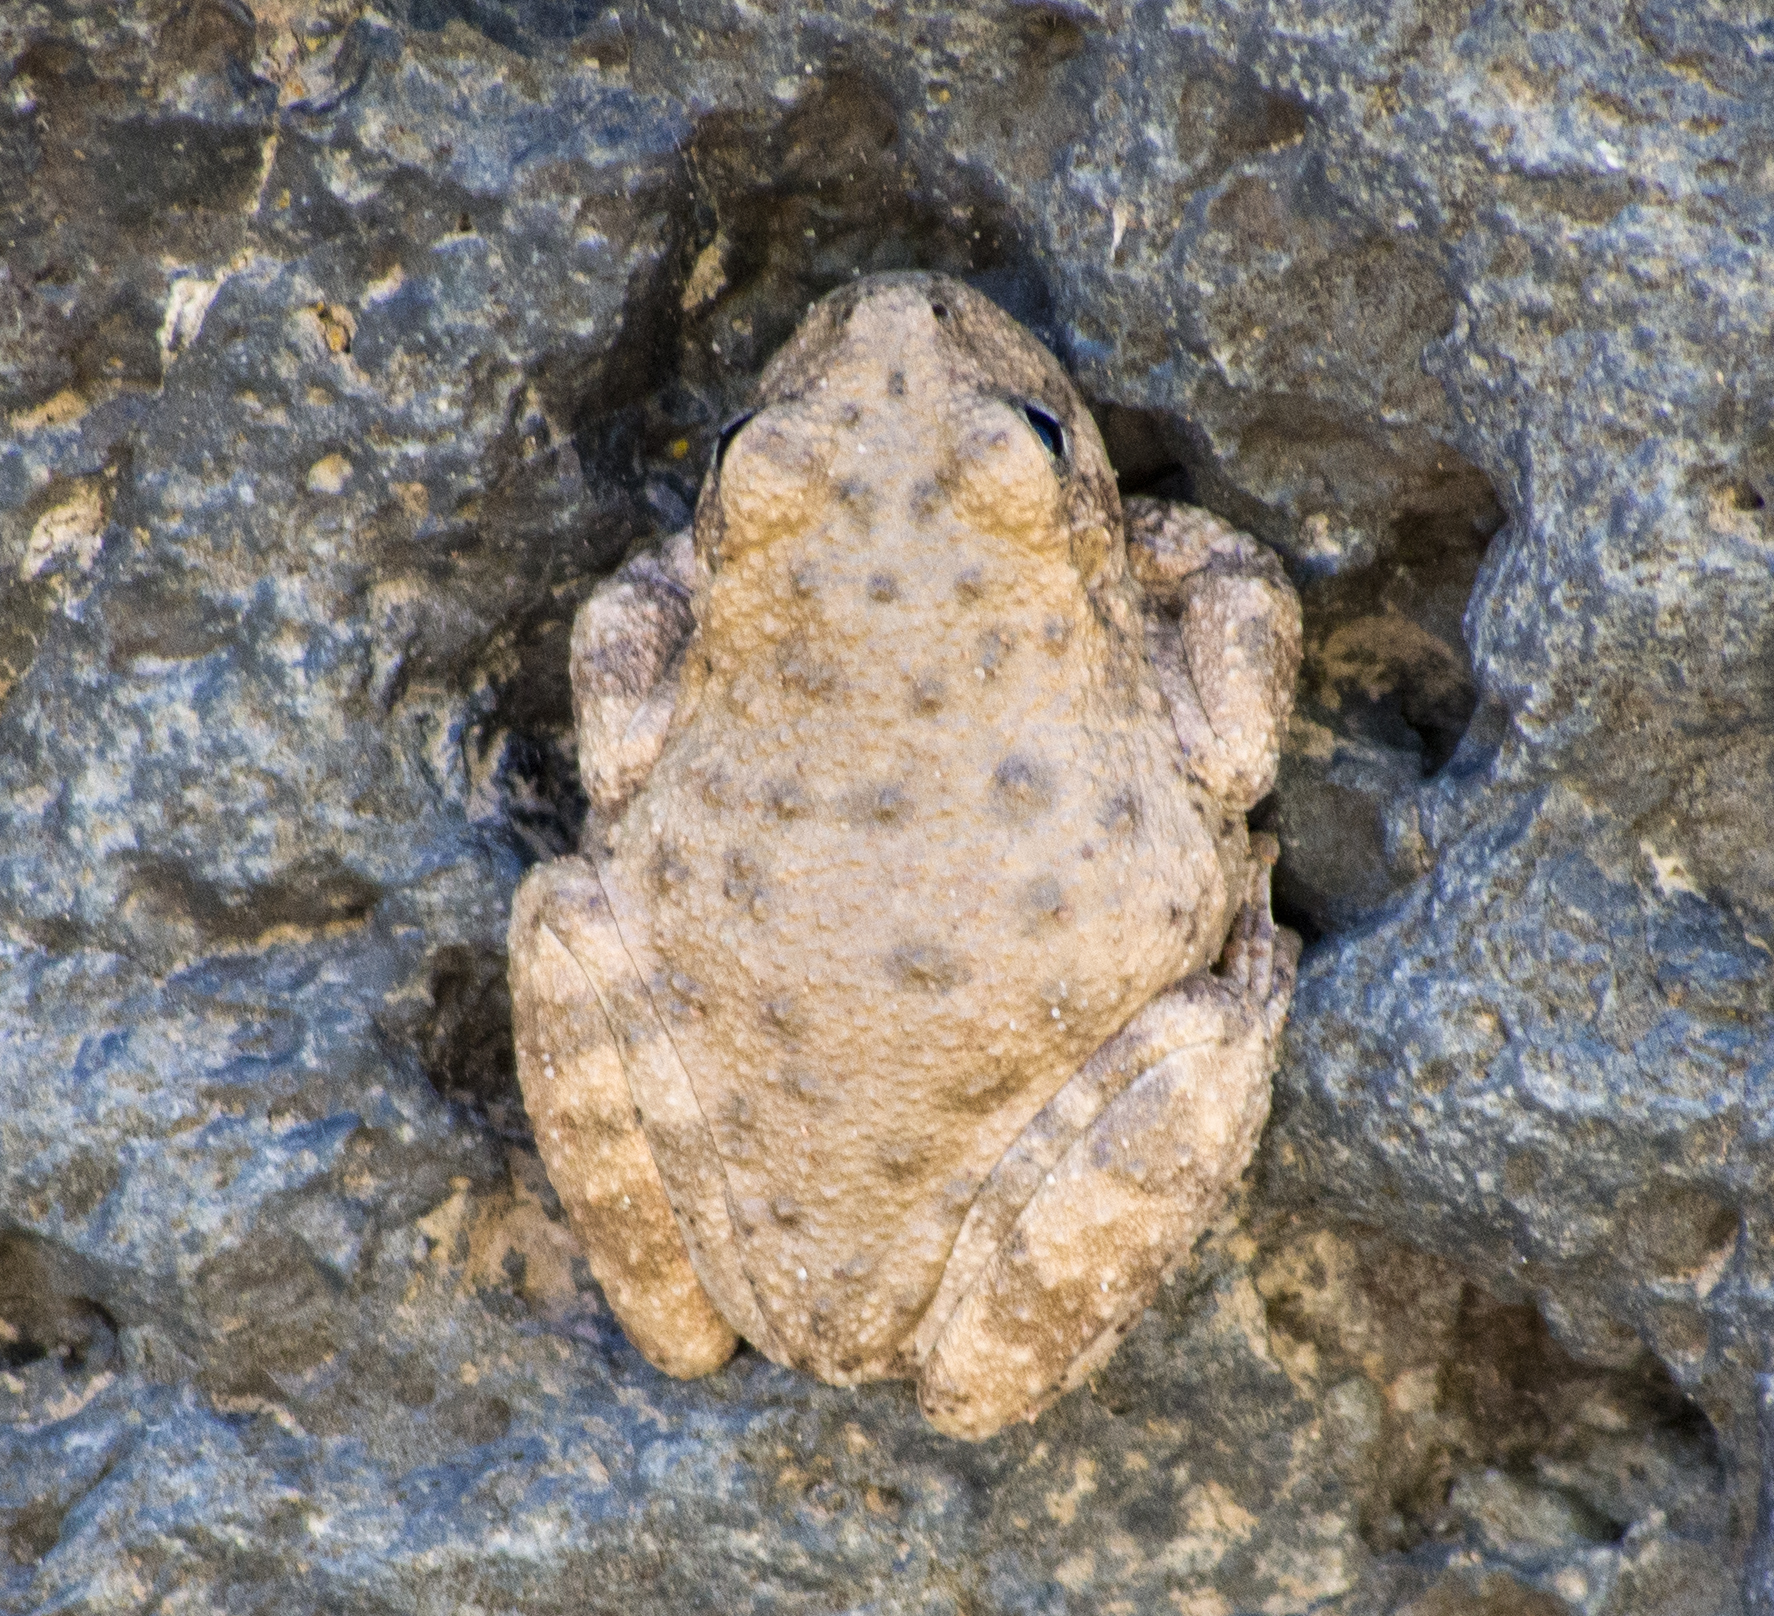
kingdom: Animalia
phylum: Chordata
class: Amphibia
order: Anura
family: Hylidae
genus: Dryophytes
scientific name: Dryophytes arenicolor
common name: Canyon treefrog
